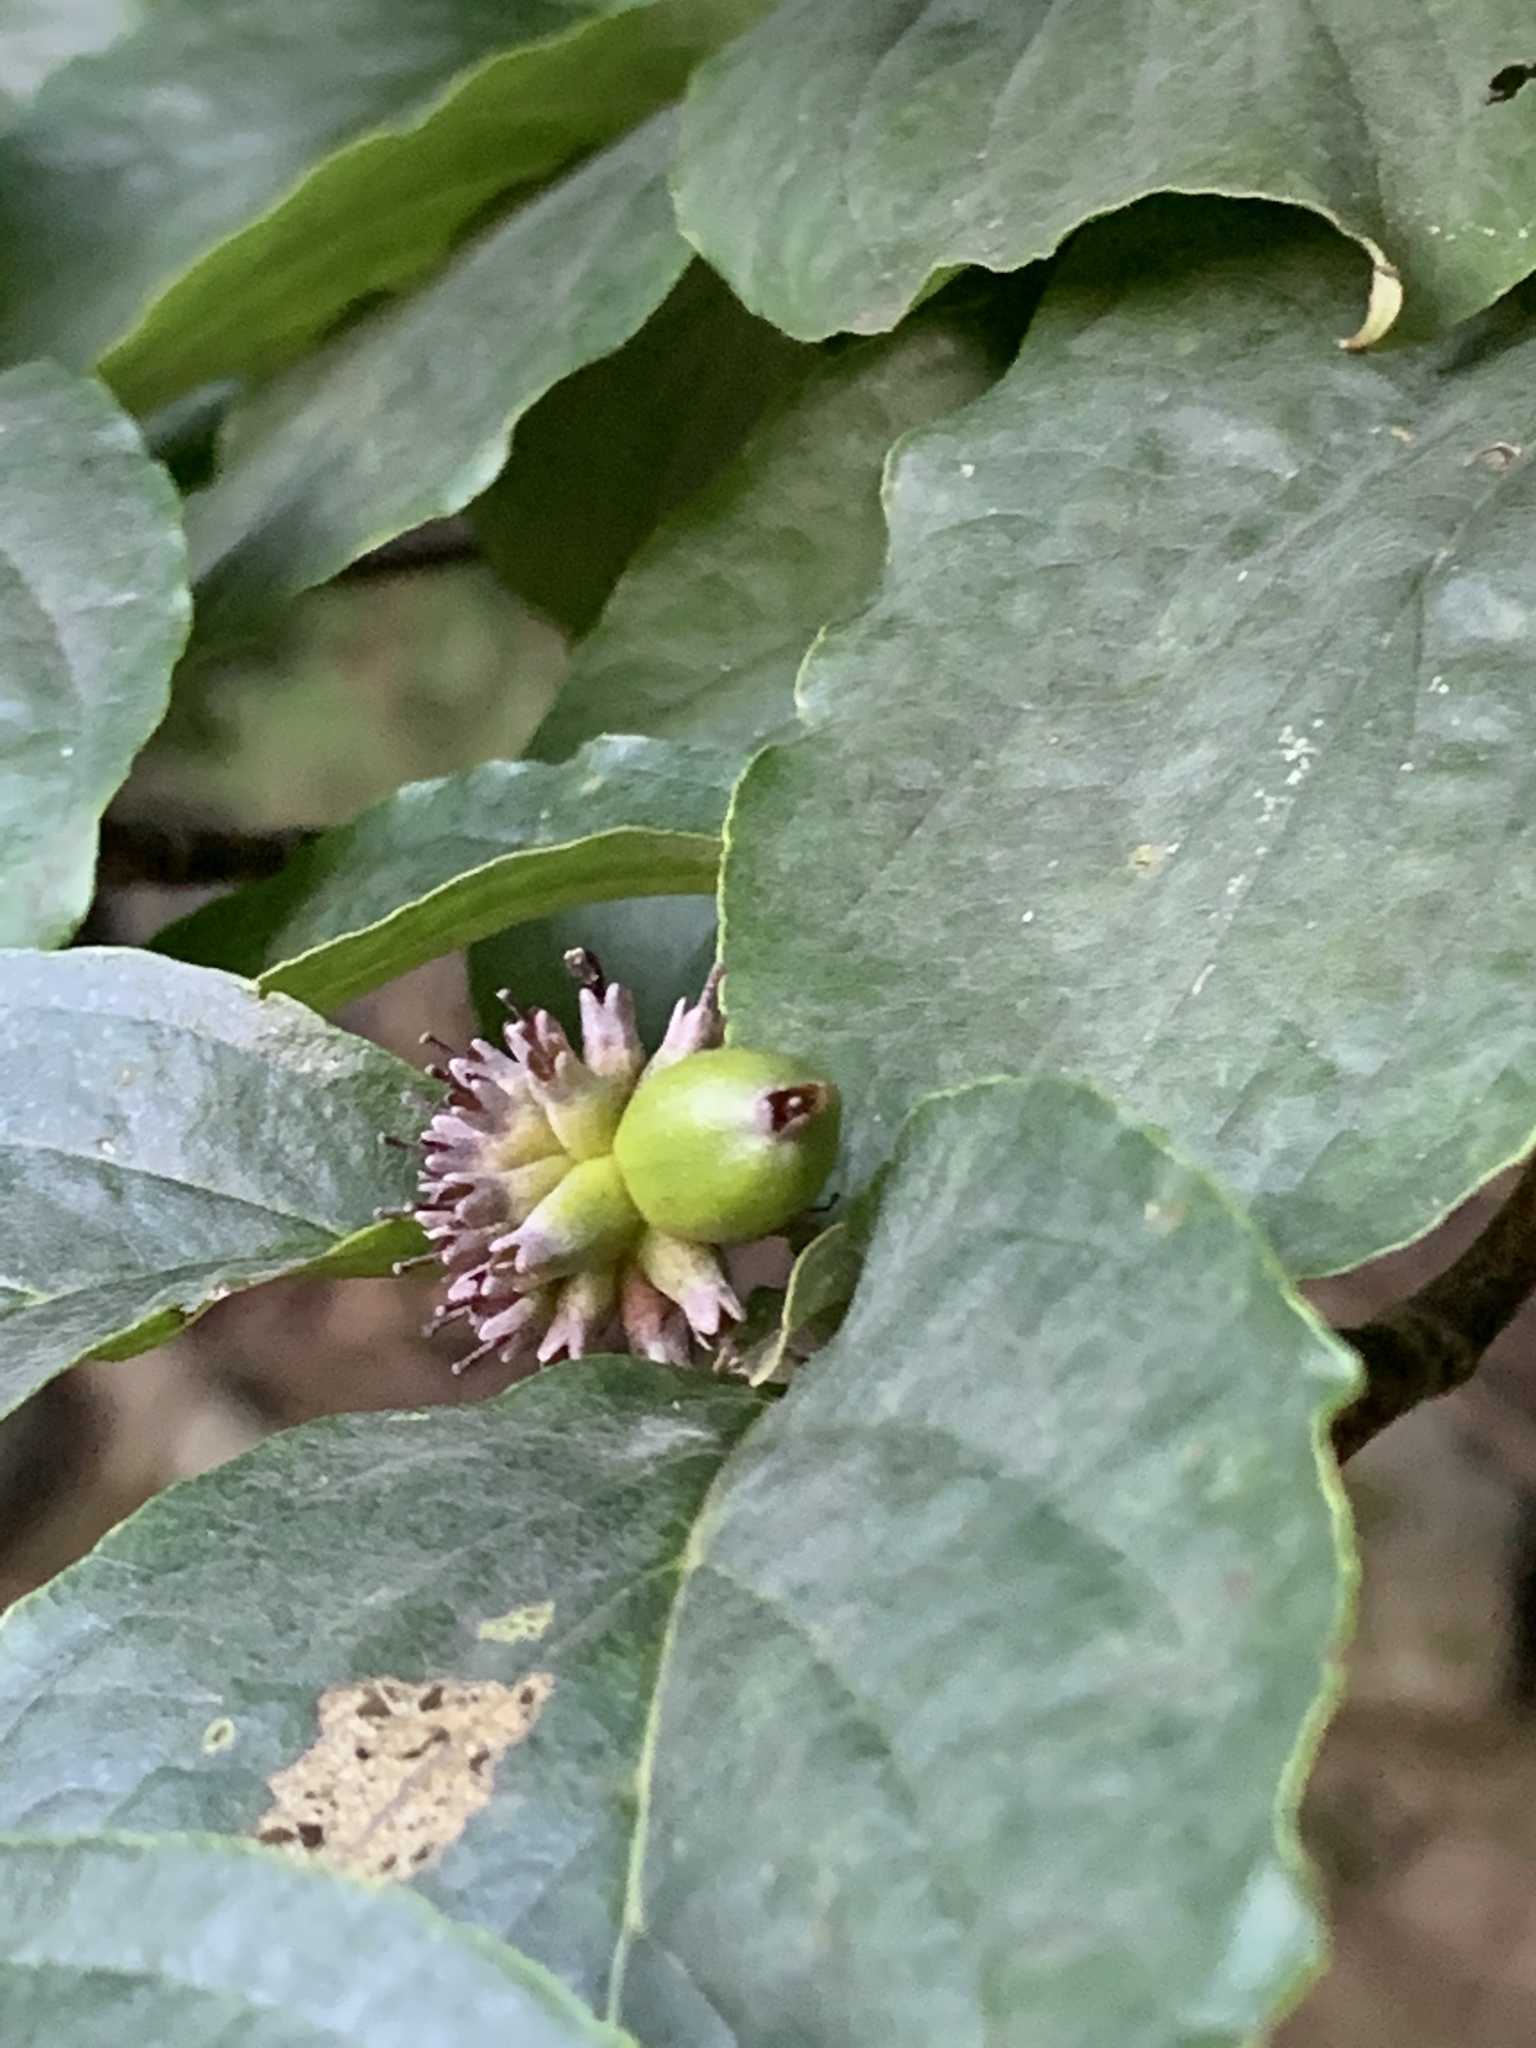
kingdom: Plantae
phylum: Tracheophyta
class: Magnoliopsida
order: Cornales
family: Cornaceae
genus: Cornus
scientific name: Cornus florida
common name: Flowering dogwood
